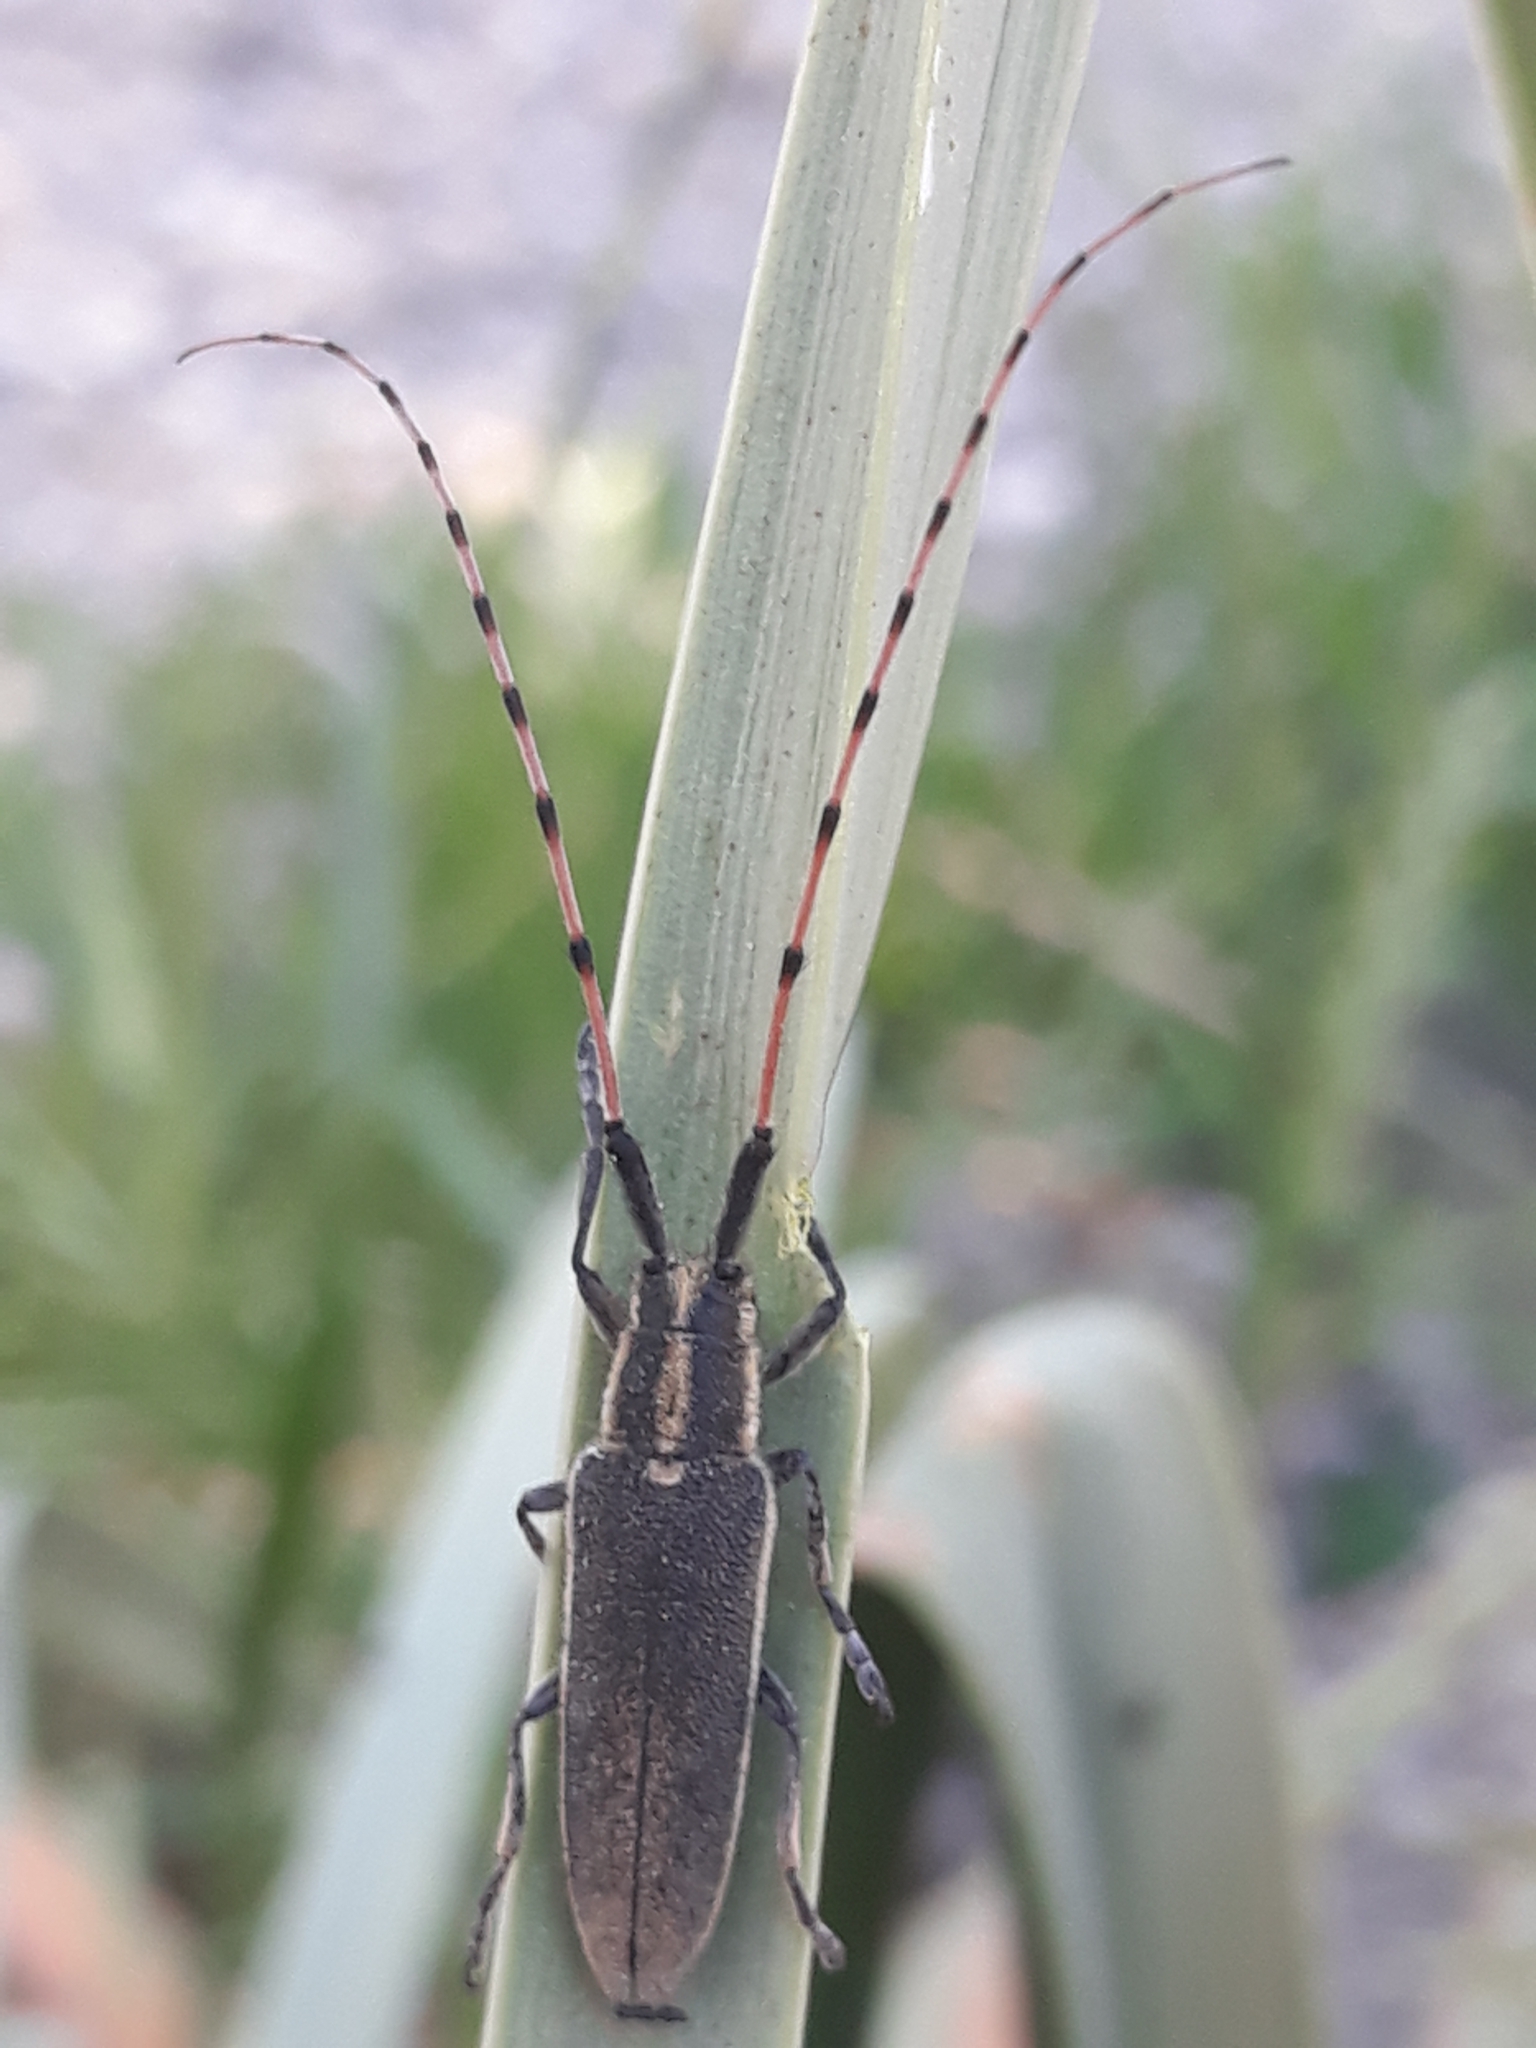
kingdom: Animalia
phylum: Arthropoda
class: Insecta
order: Coleoptera
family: Cerambycidae
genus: Agapanthia
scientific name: Agapanthia annularis
